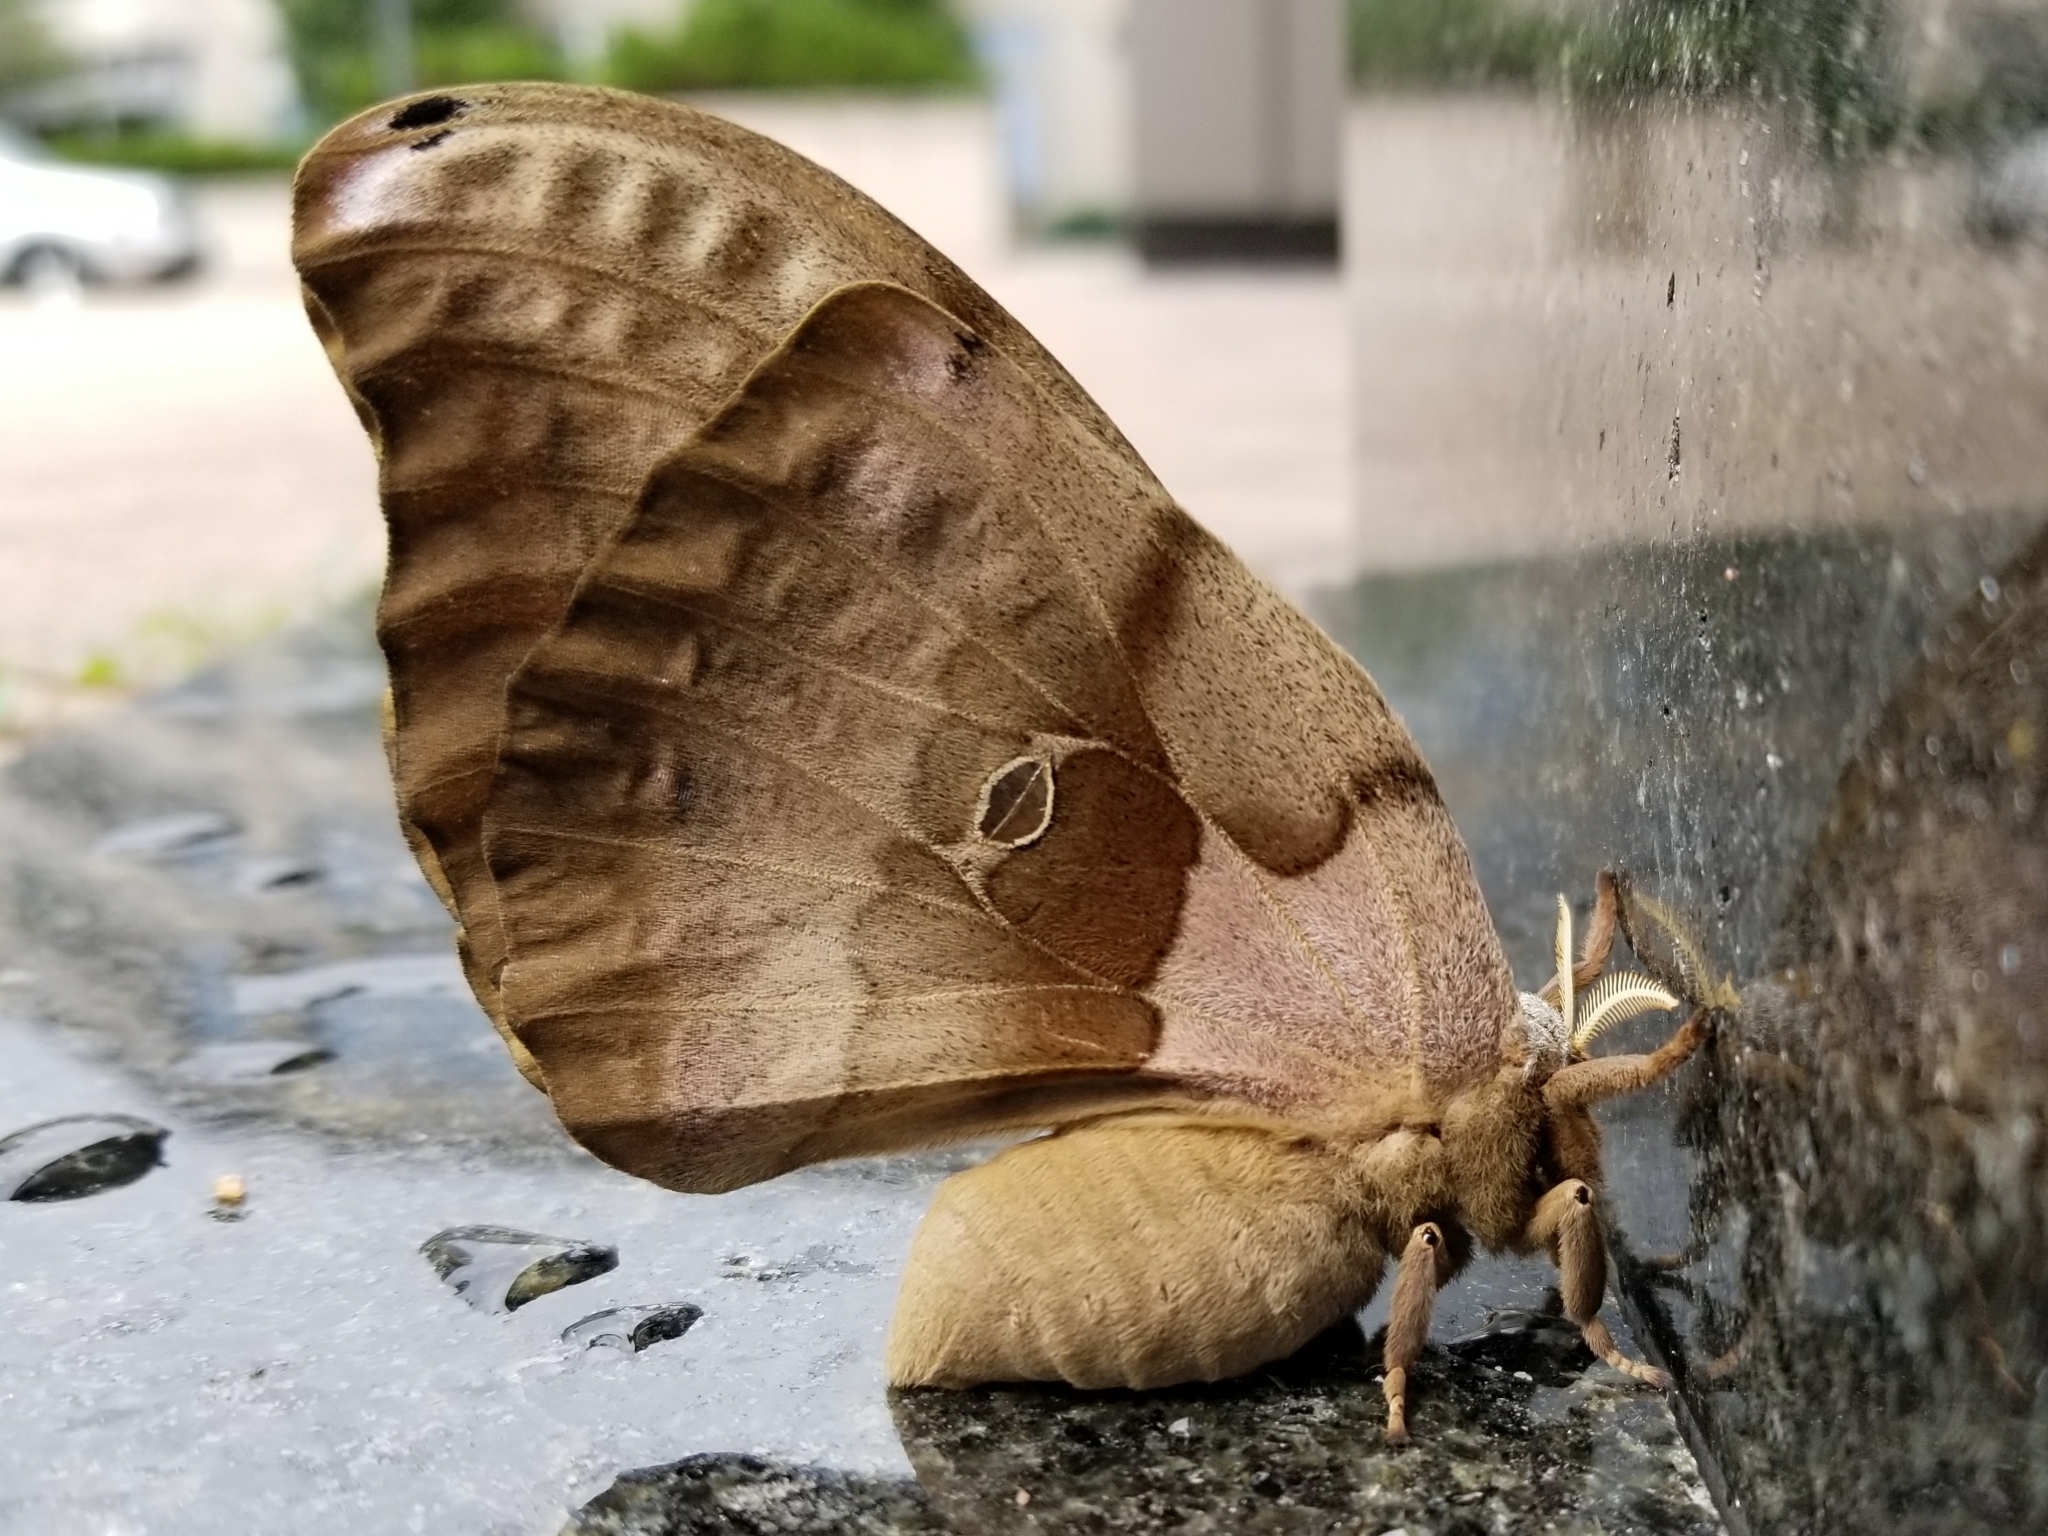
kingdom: Animalia
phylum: Arthropoda
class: Insecta
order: Lepidoptera
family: Saturniidae
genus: Antheraea
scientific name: Antheraea polyphemus
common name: Polyphemus moth
